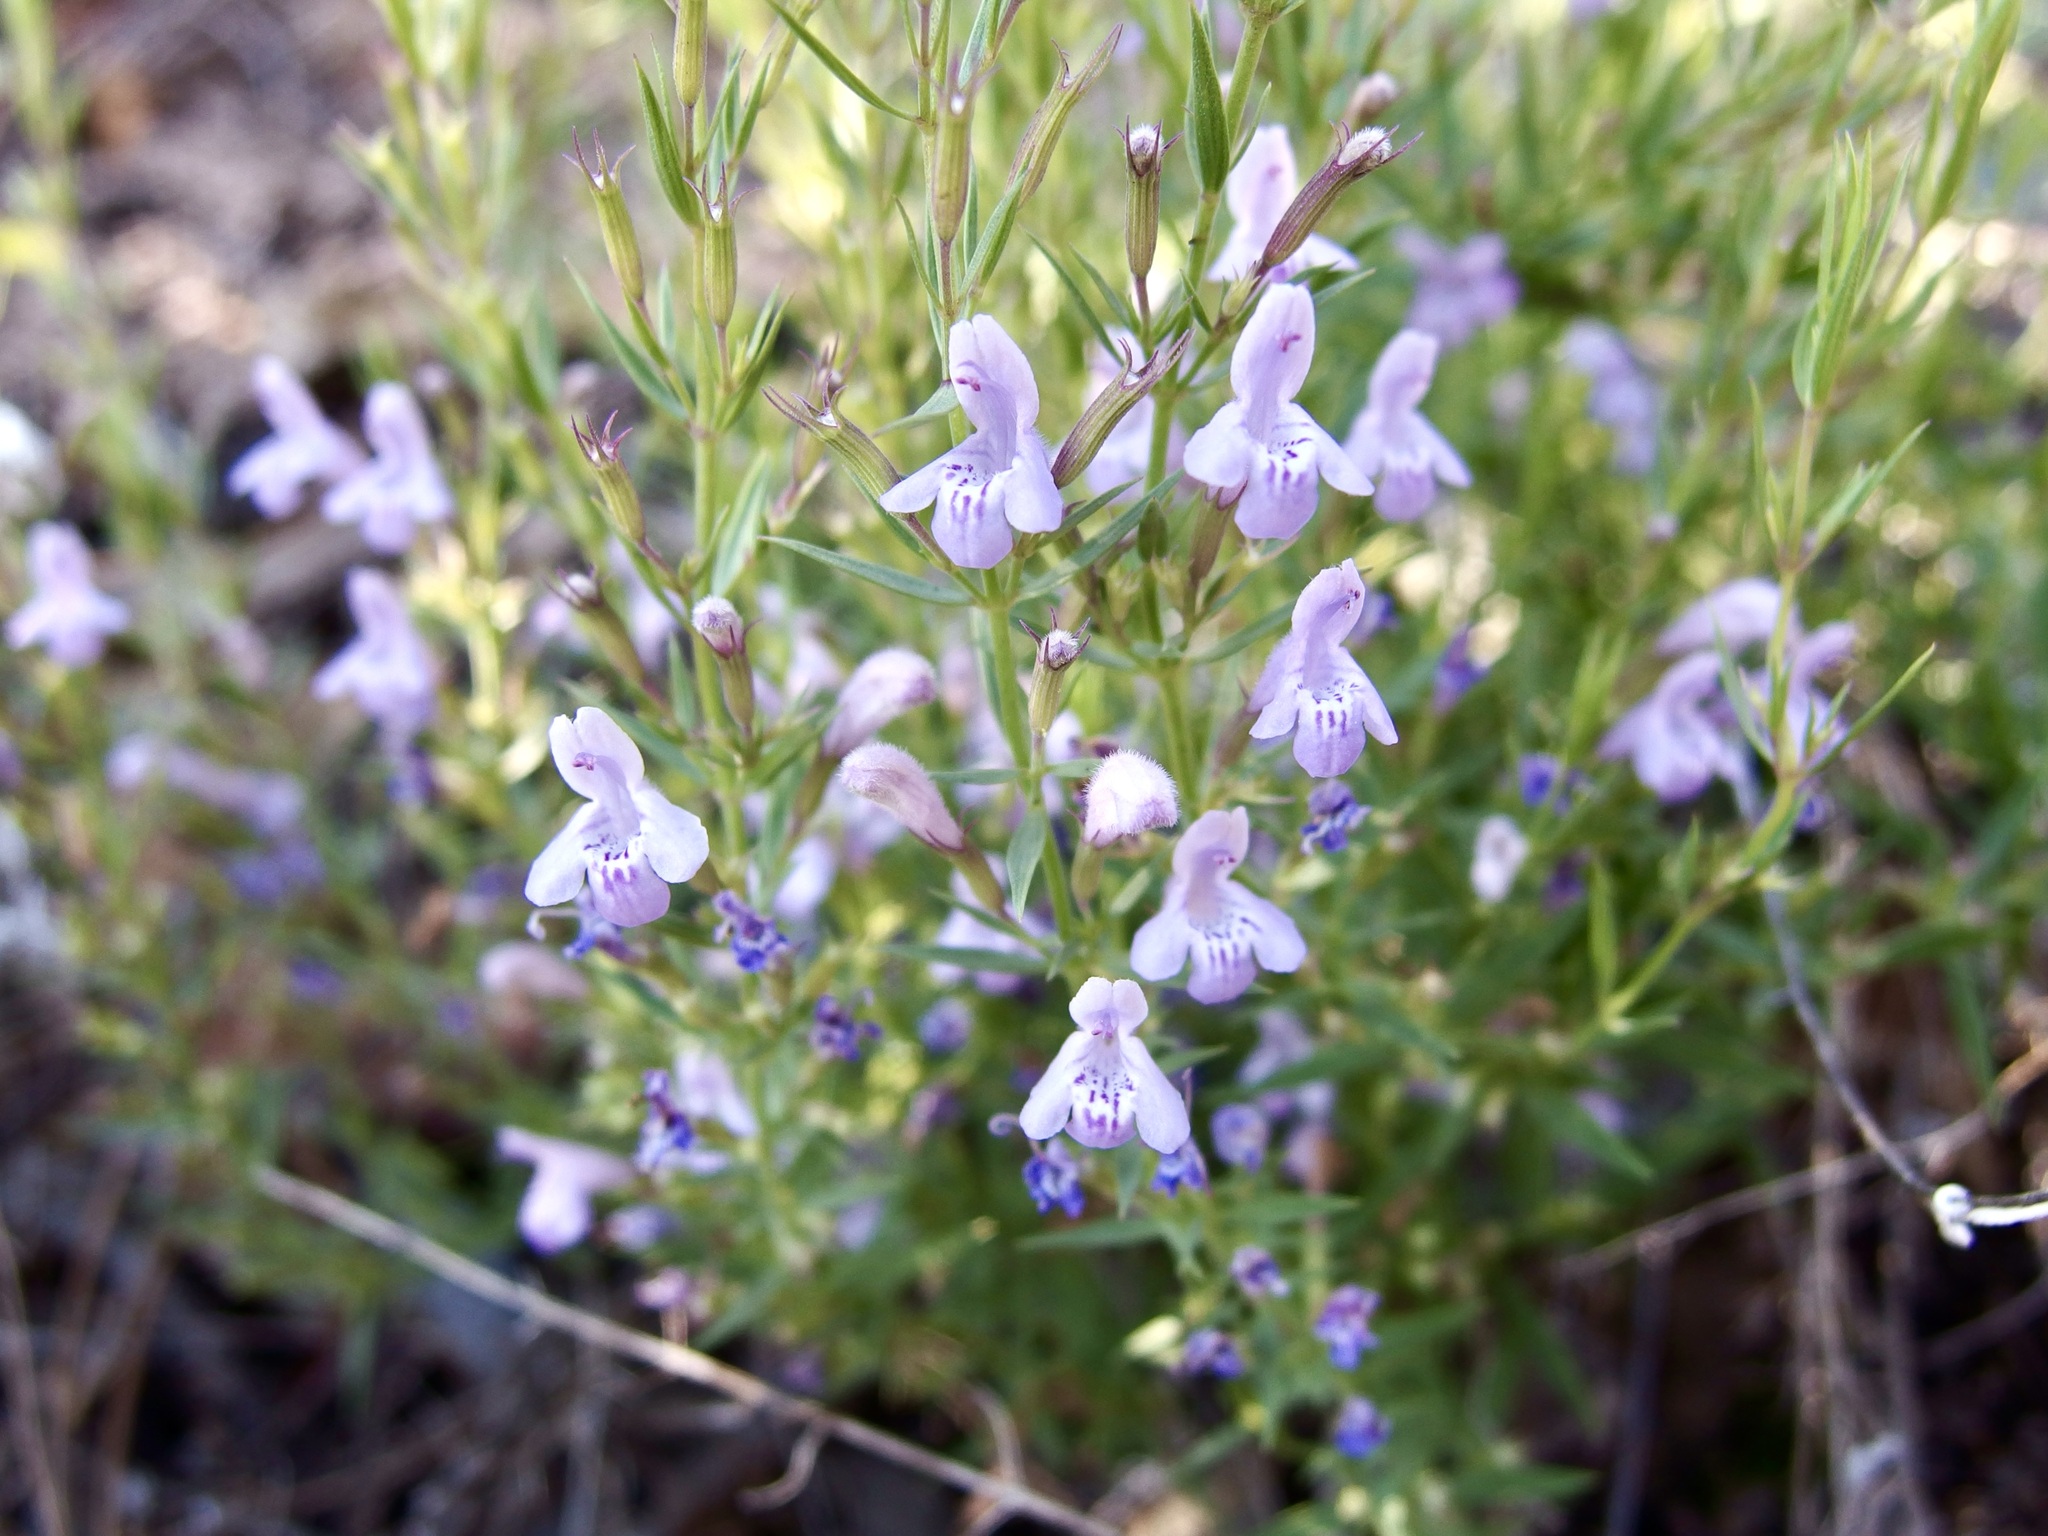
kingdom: Plantae
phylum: Tracheophyta
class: Magnoliopsida
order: Lamiales
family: Lamiaceae
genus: Hedeoma
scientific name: Hedeoma hyssopifolia
